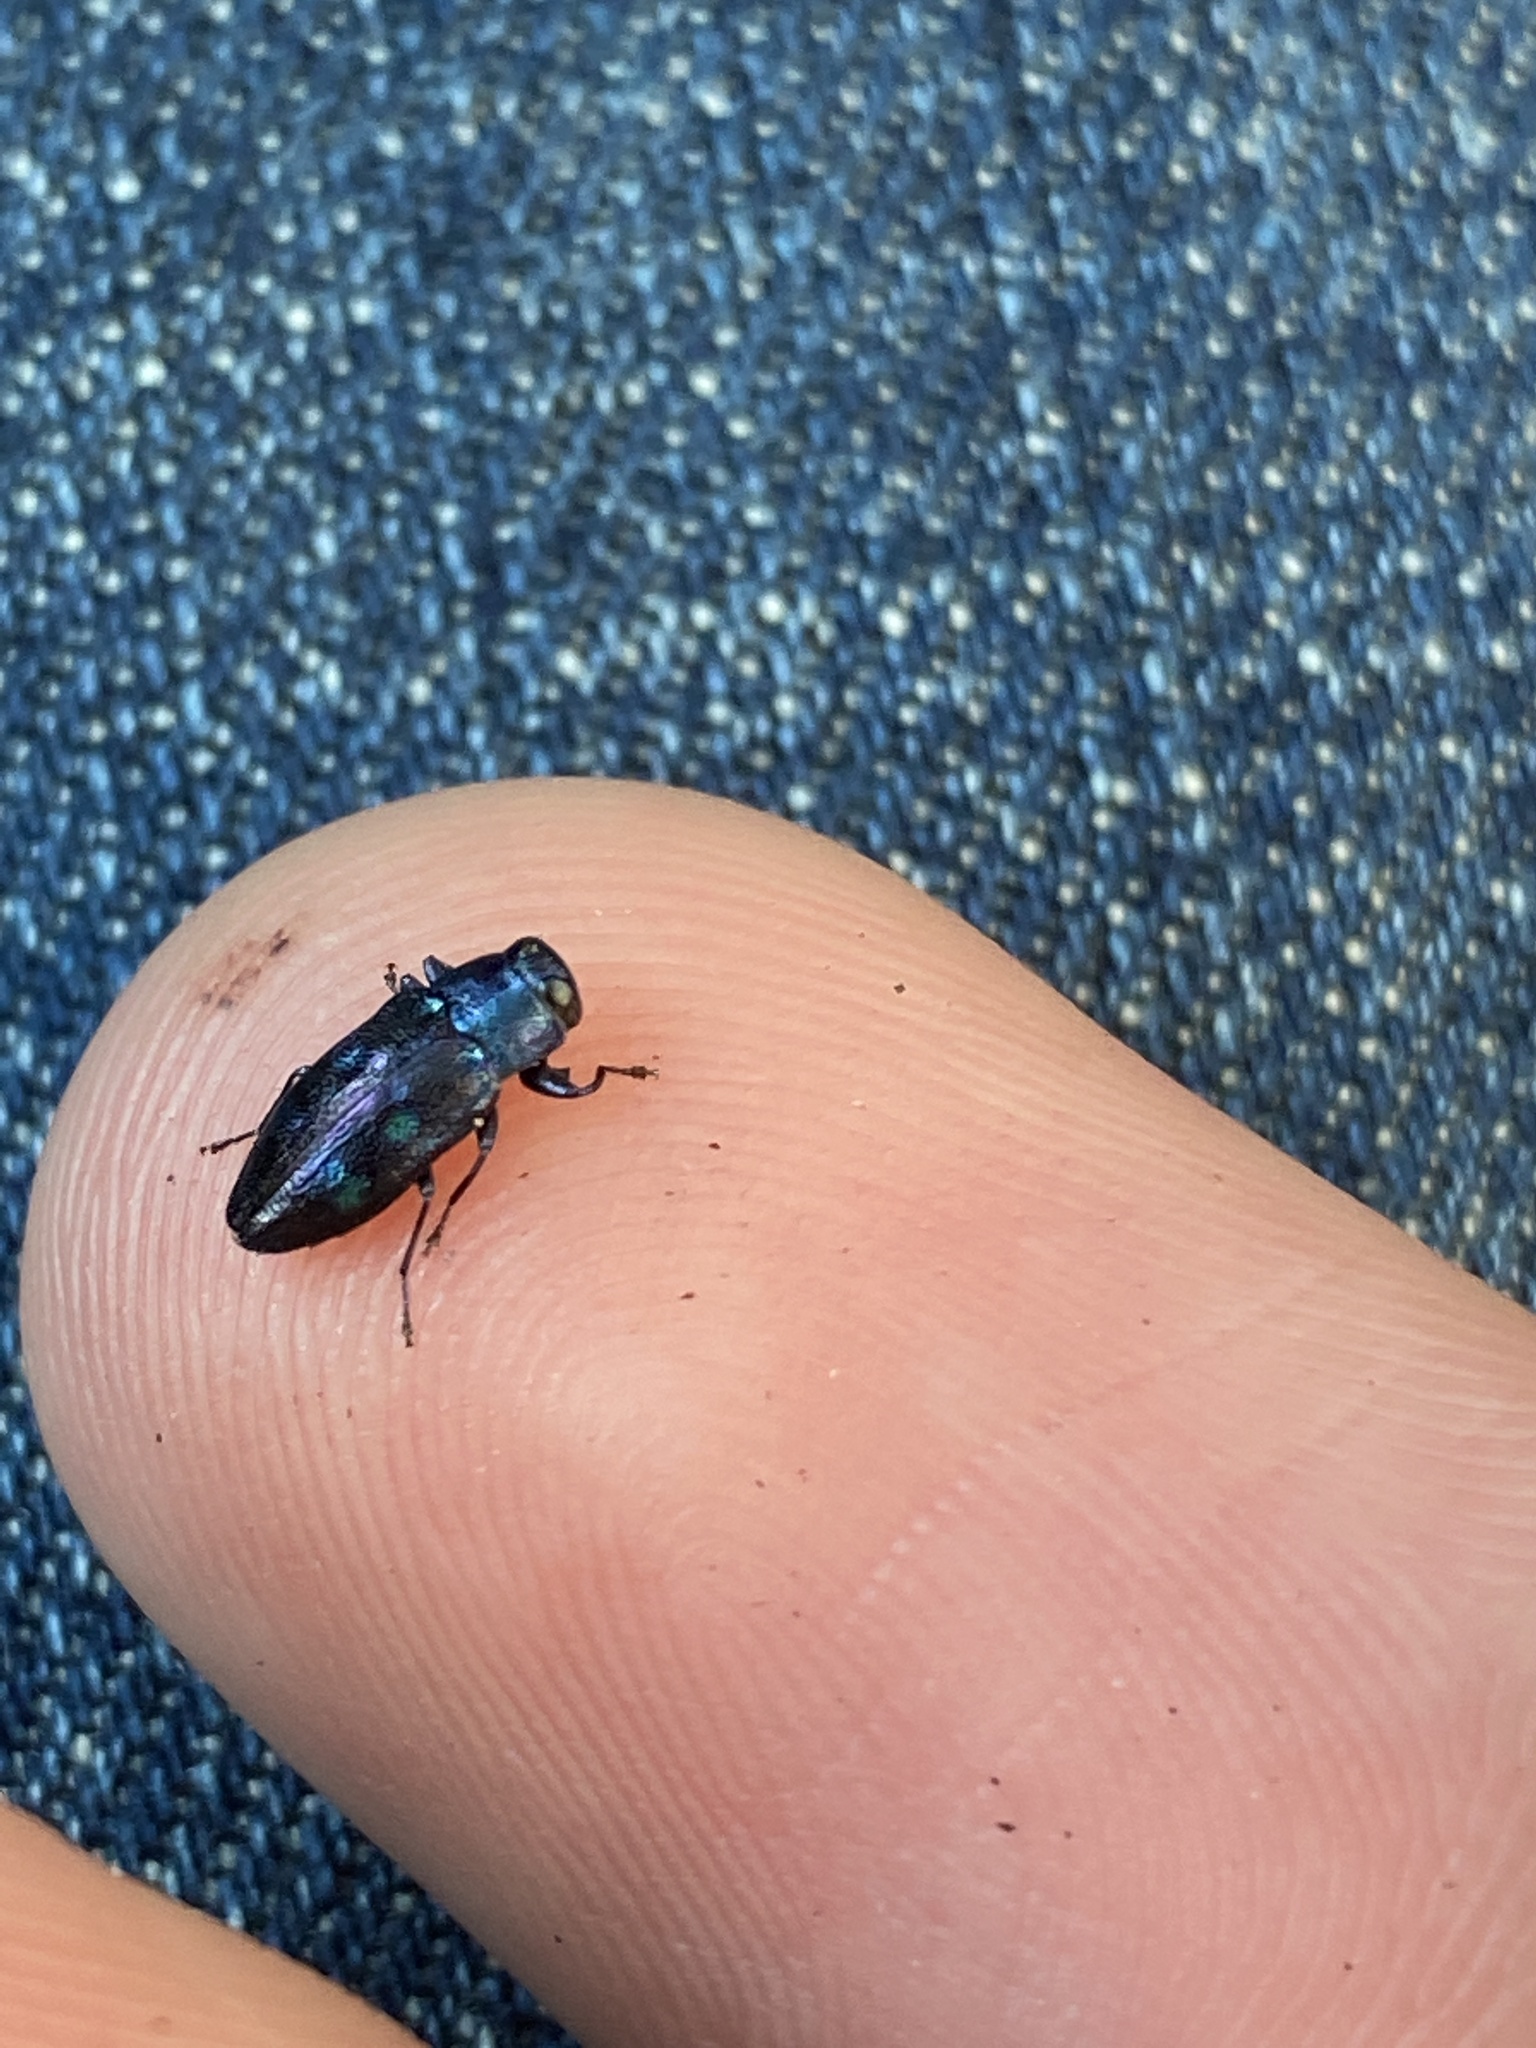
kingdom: Animalia
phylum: Arthropoda
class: Insecta
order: Coleoptera
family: Buprestidae
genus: Chrysobothris
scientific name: Chrysobothris chlorocephala
